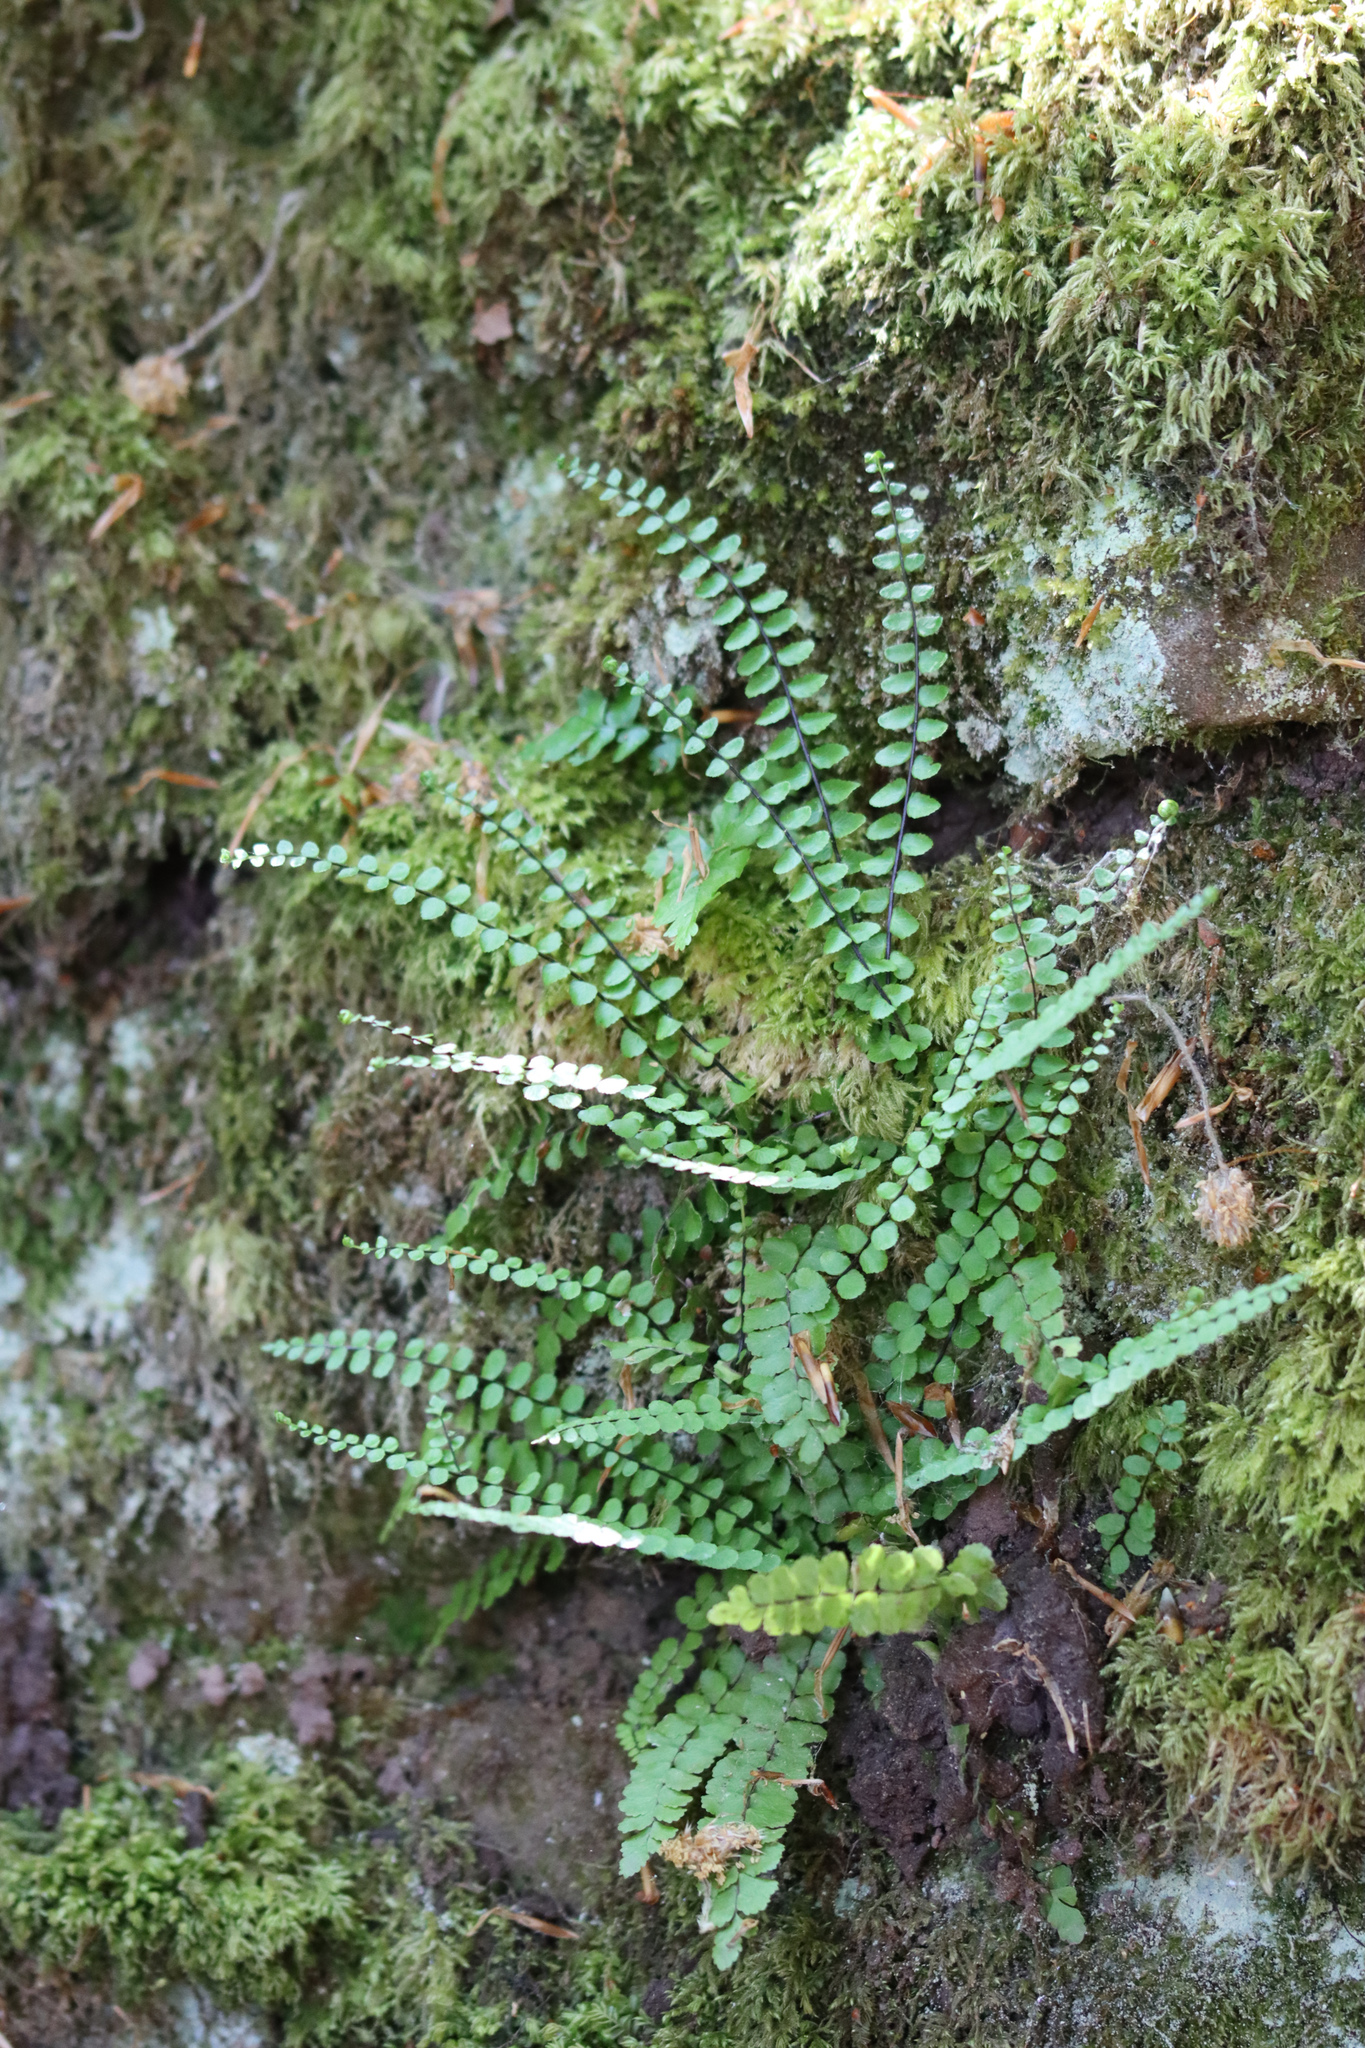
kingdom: Plantae
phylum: Tracheophyta
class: Polypodiopsida
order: Polypodiales
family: Aspleniaceae
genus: Asplenium
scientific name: Asplenium trichomanes
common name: Maidenhair spleenwort
